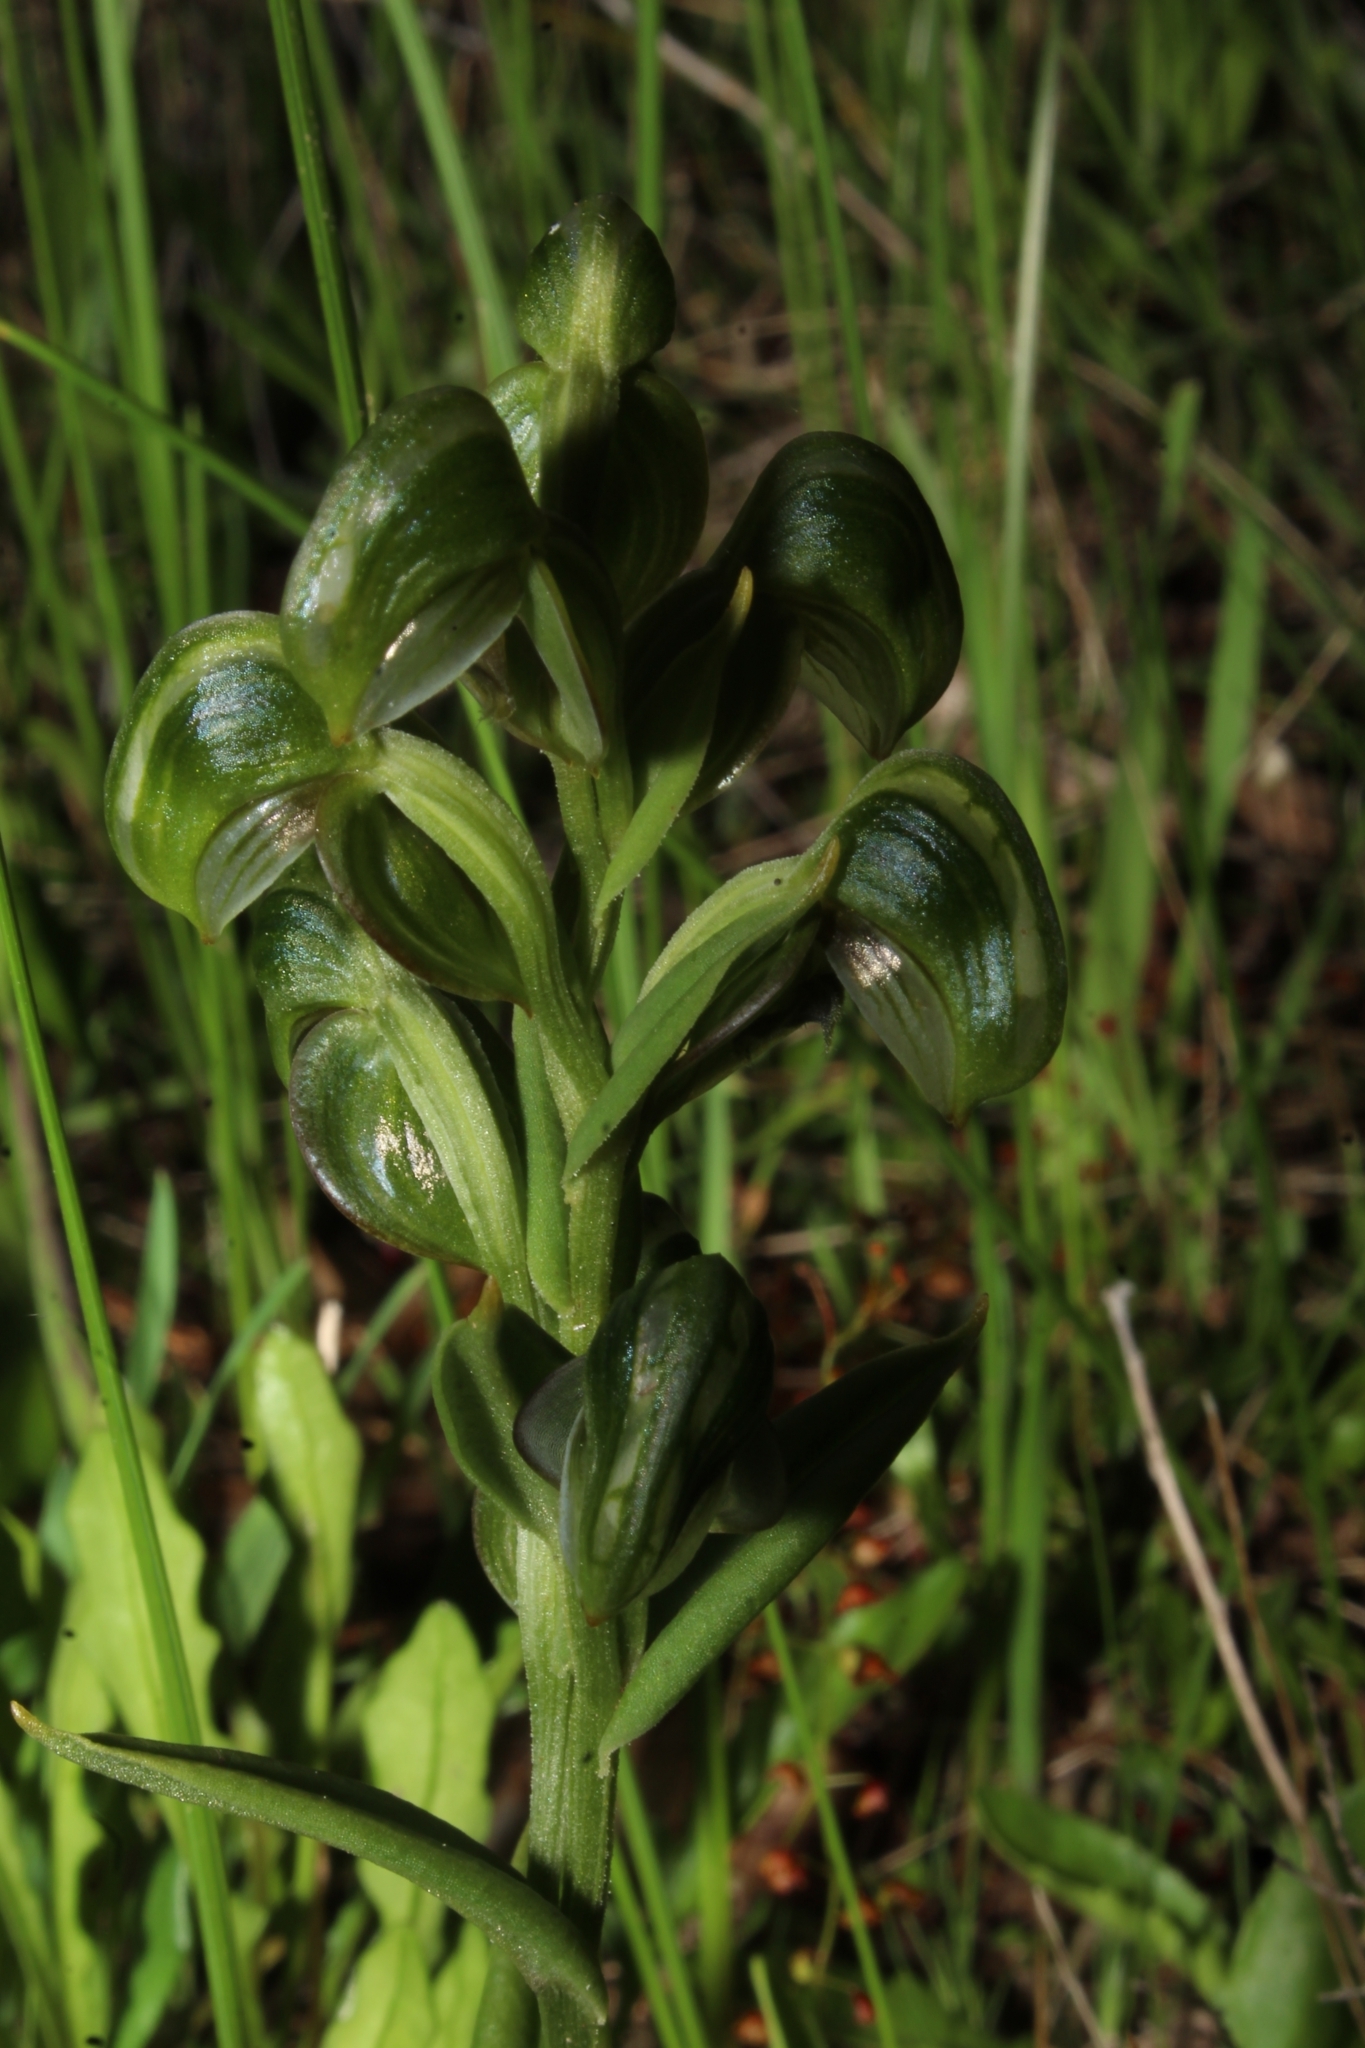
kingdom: Plantae
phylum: Tracheophyta
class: Liliopsida
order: Asparagales
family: Orchidaceae
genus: Pterostylis
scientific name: Pterostylis vittata
